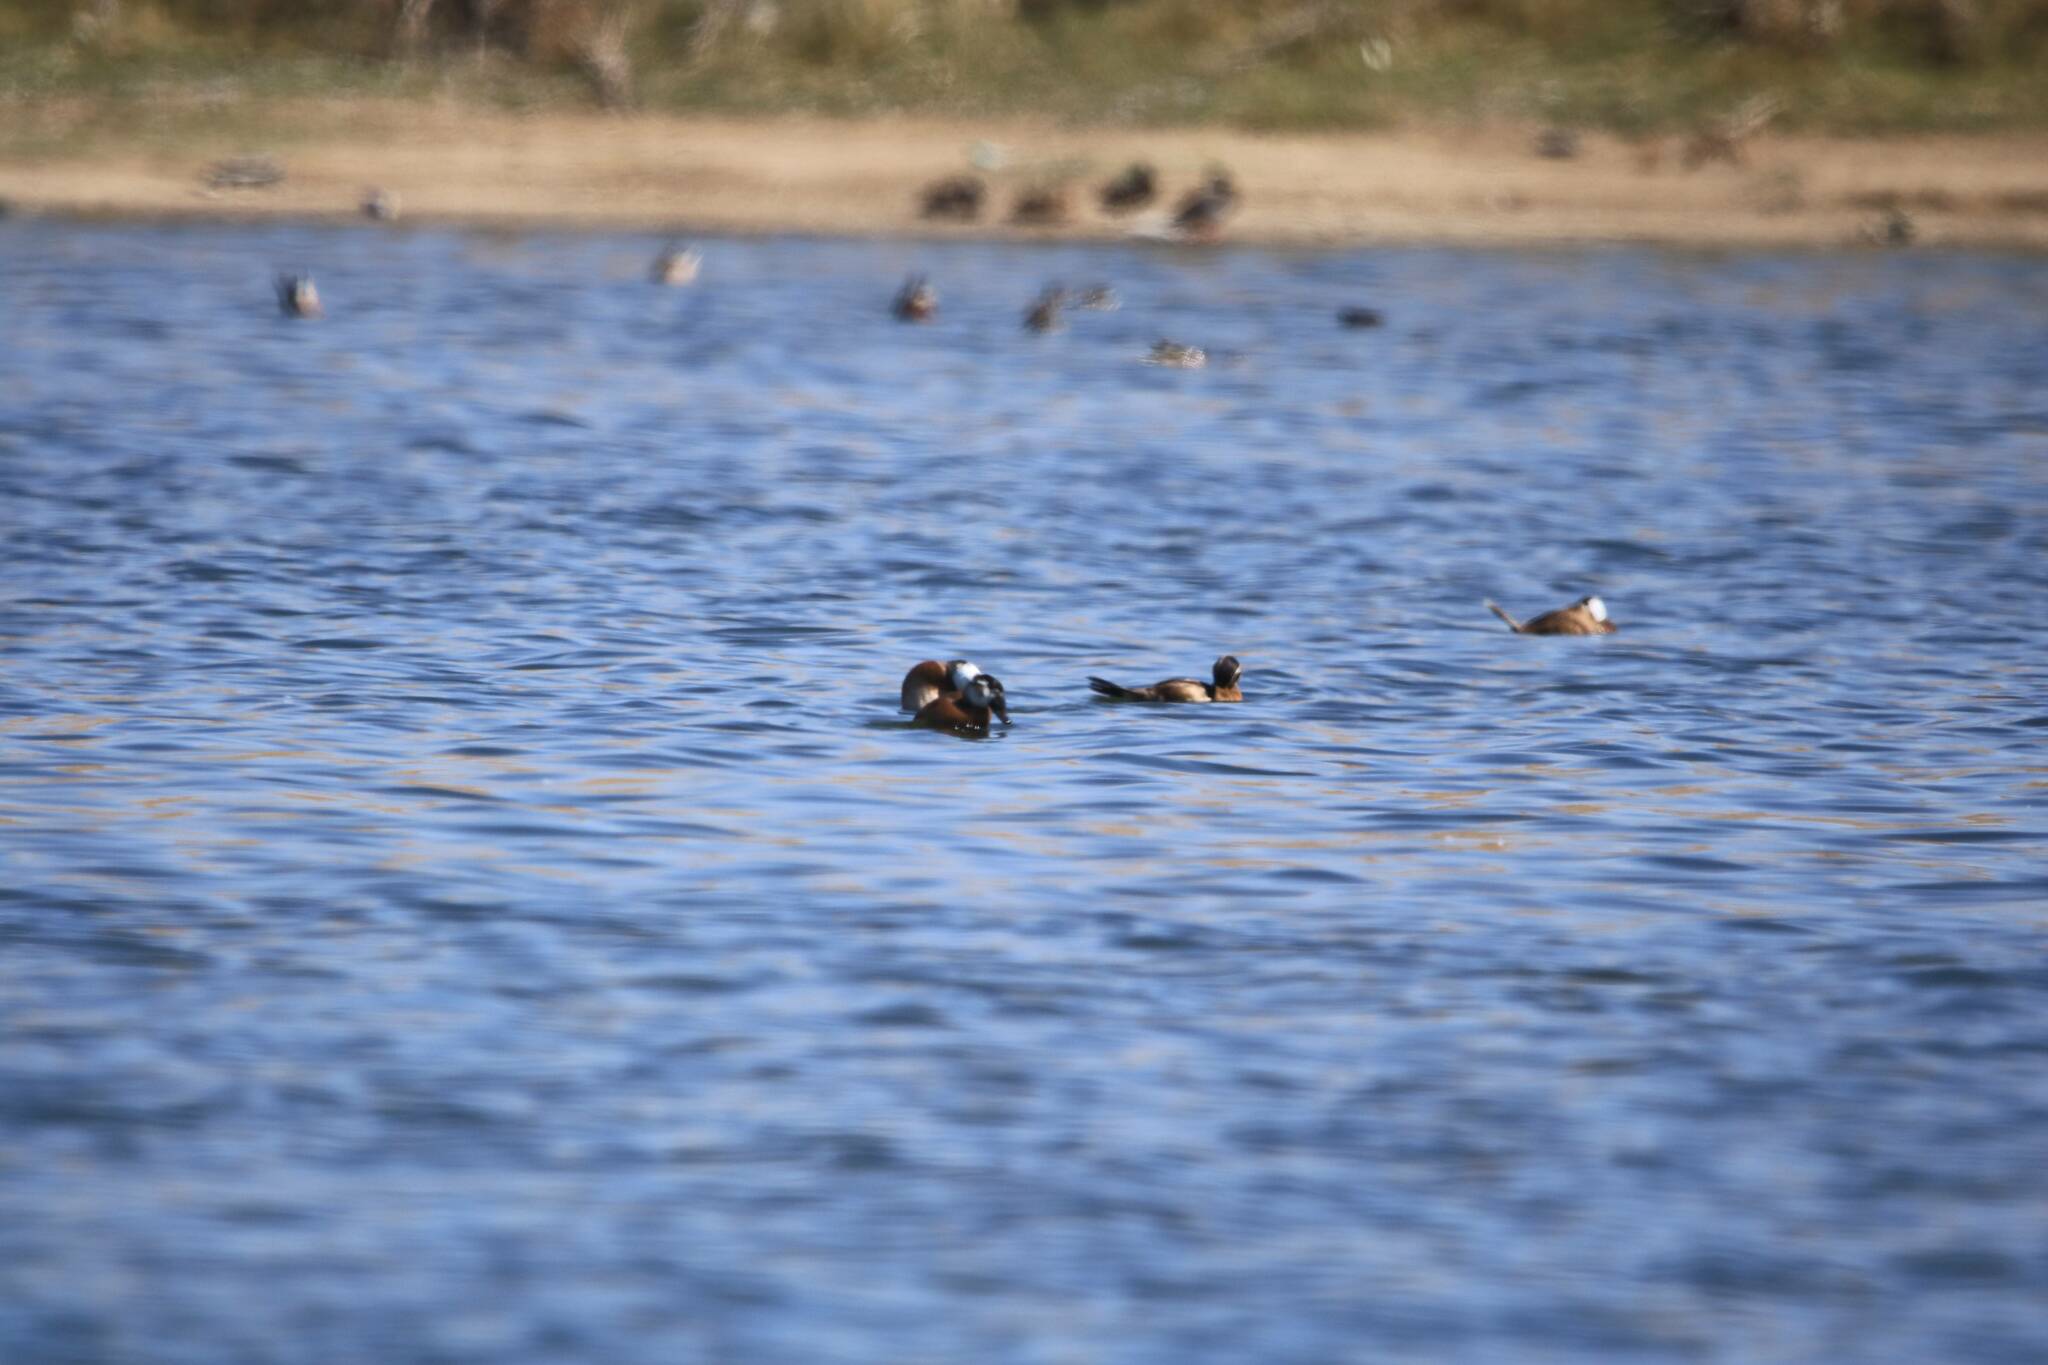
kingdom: Animalia
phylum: Chordata
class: Aves
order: Anseriformes
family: Anatidae
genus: Oxyura
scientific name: Oxyura leucocephala
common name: White-headed duck
